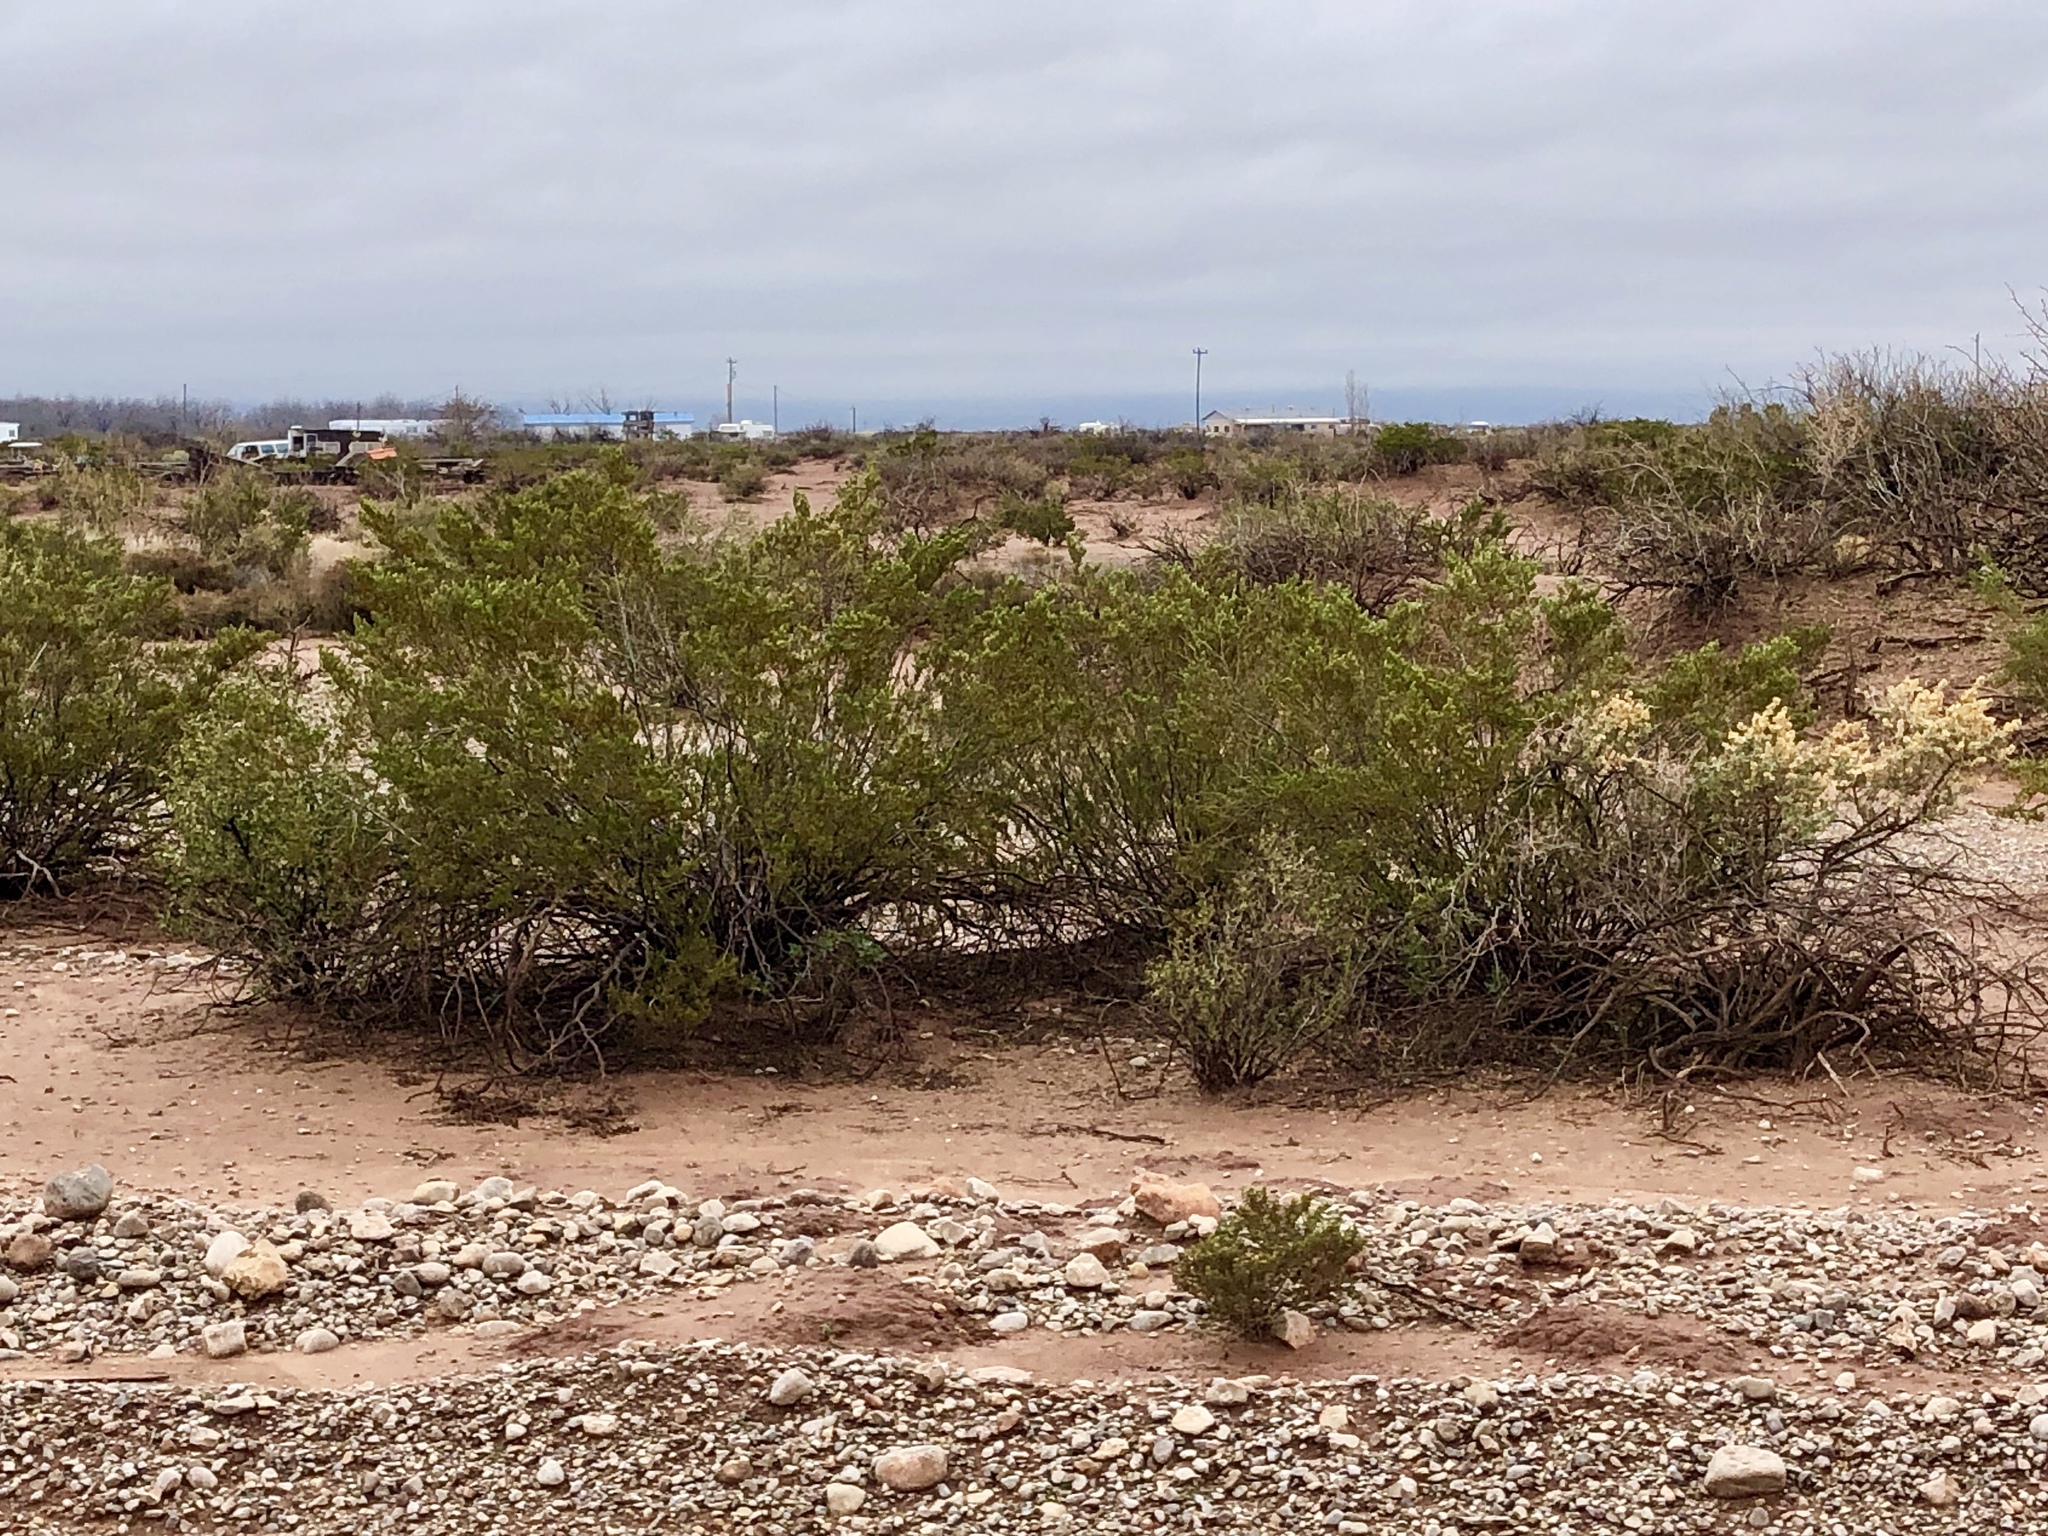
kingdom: Plantae
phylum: Tracheophyta
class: Magnoliopsida
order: Zygophyllales
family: Zygophyllaceae
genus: Larrea
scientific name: Larrea tridentata
